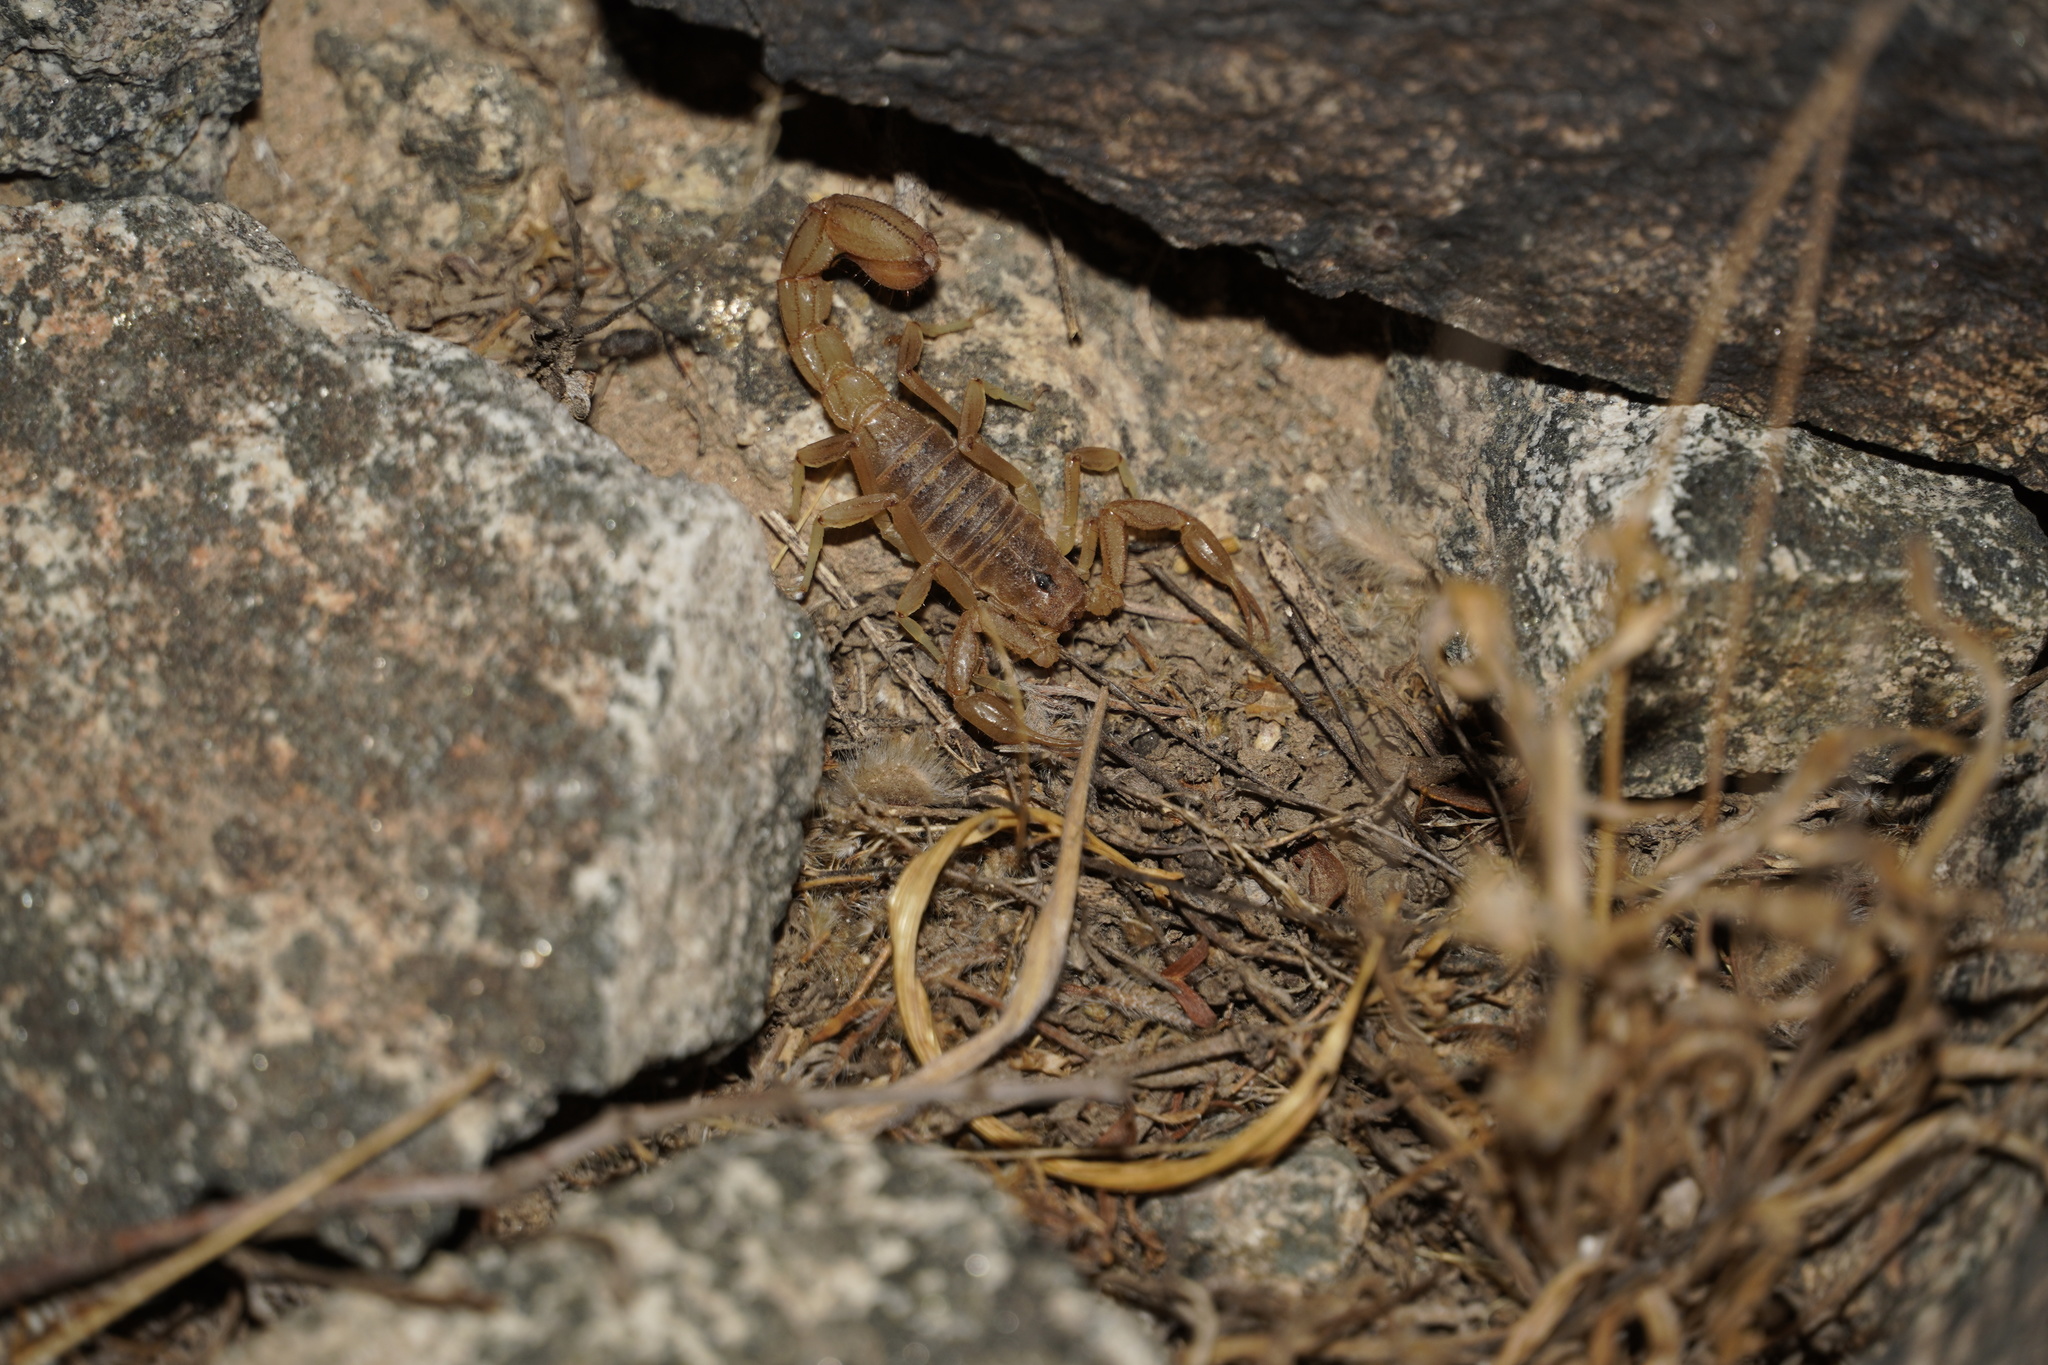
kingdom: Animalia
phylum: Arthropoda
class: Arachnida
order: Scorpiones
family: Vaejovidae
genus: Paravaejovis
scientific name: Paravaejovis spinigerus
